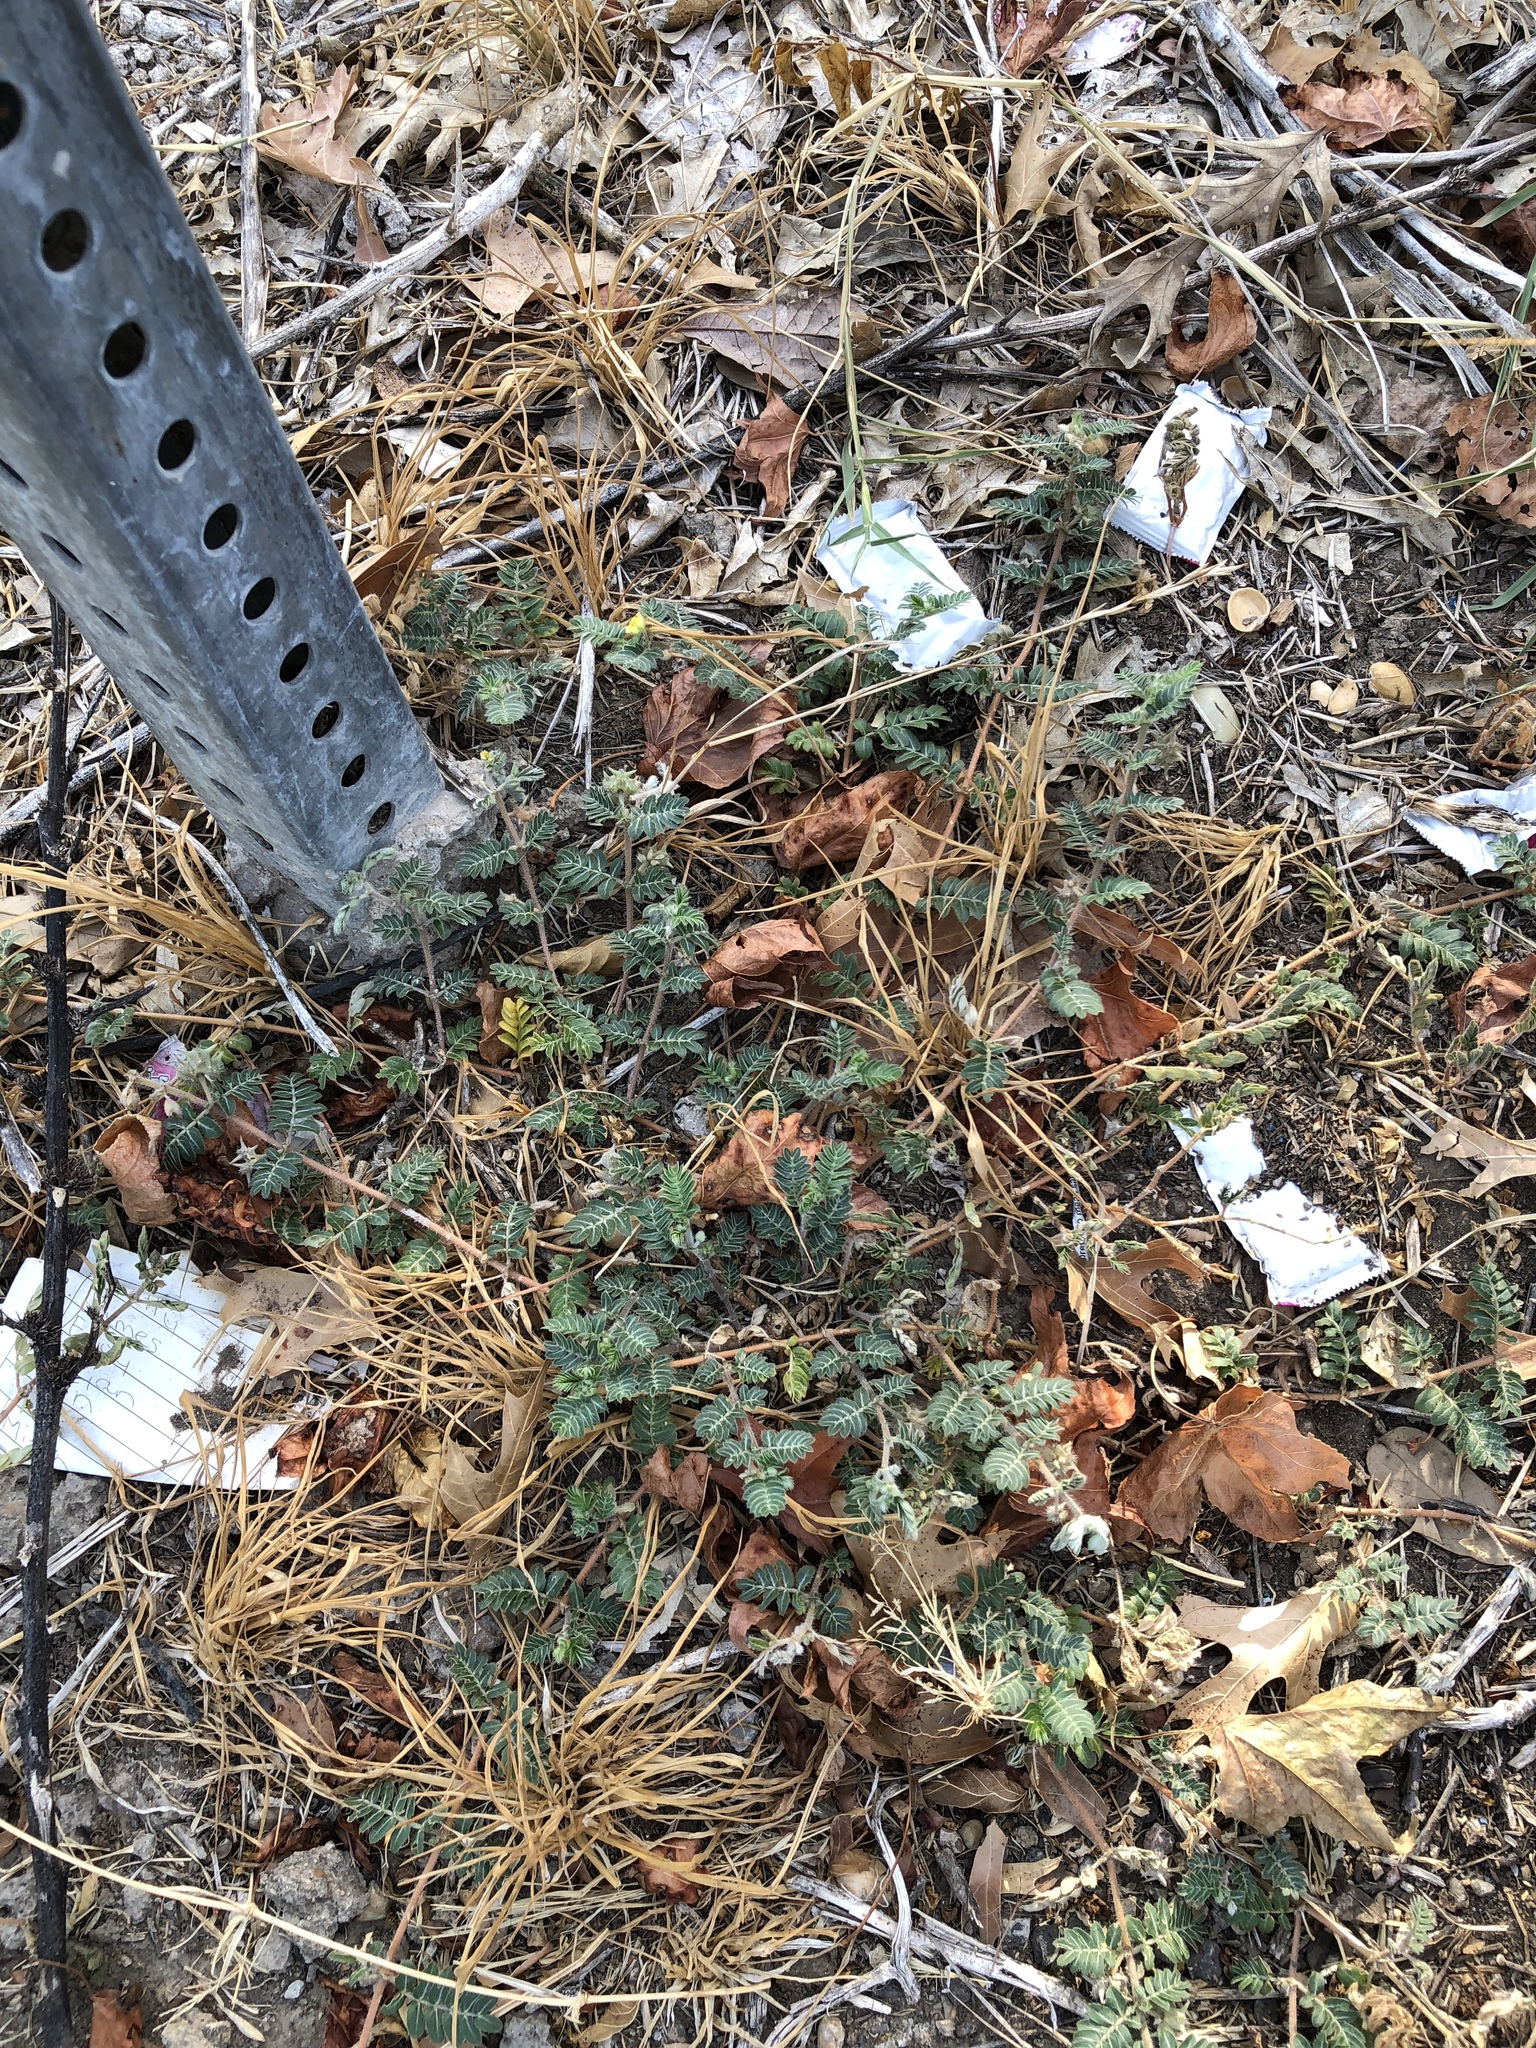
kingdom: Plantae
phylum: Tracheophyta
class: Magnoliopsida
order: Zygophyllales
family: Zygophyllaceae
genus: Tribulus
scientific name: Tribulus terrestris
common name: Puncturevine
